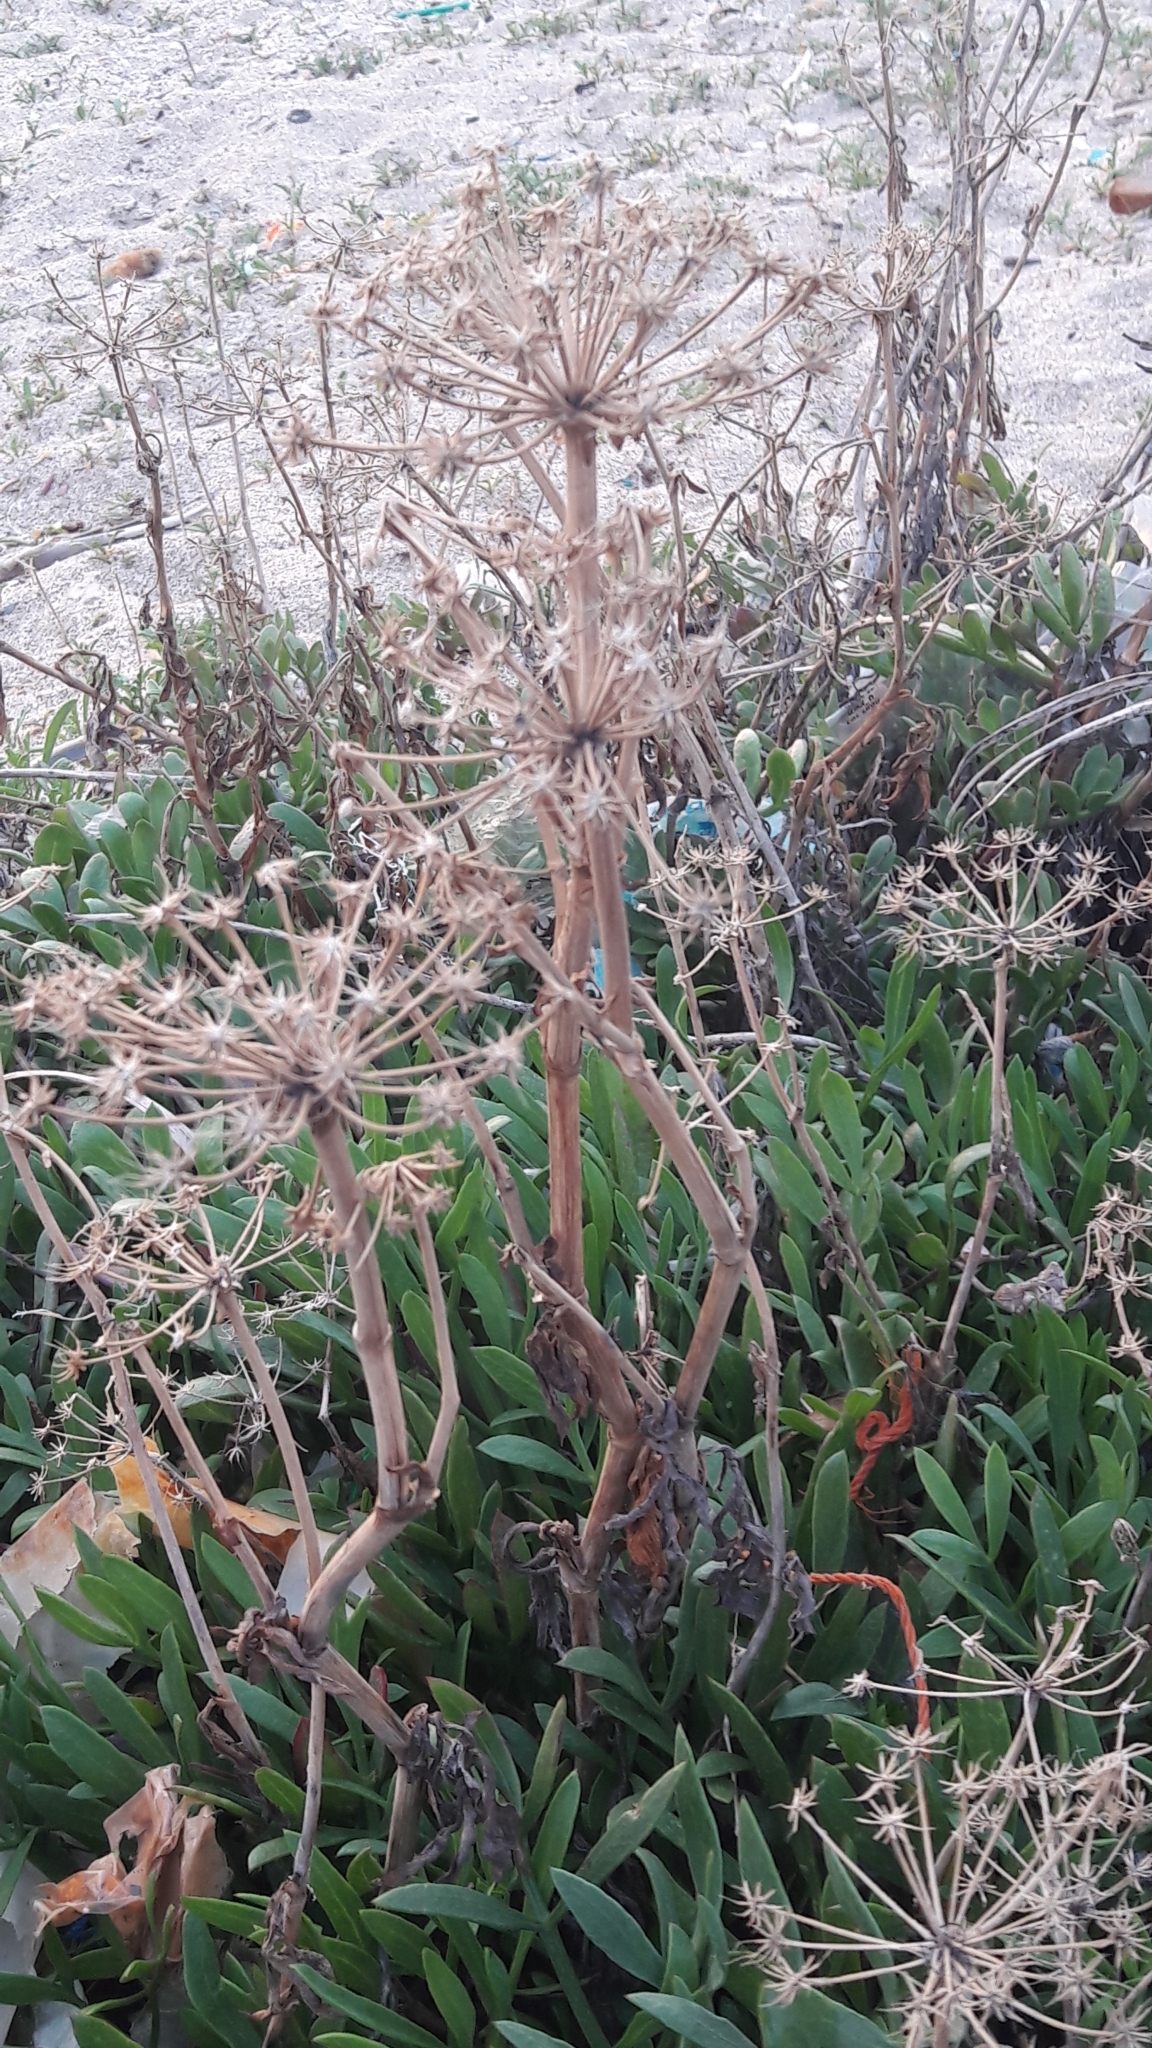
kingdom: Plantae
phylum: Tracheophyta
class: Magnoliopsida
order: Apiales
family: Apiaceae
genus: Crithmum
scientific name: Crithmum maritimum
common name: Rock samphire
